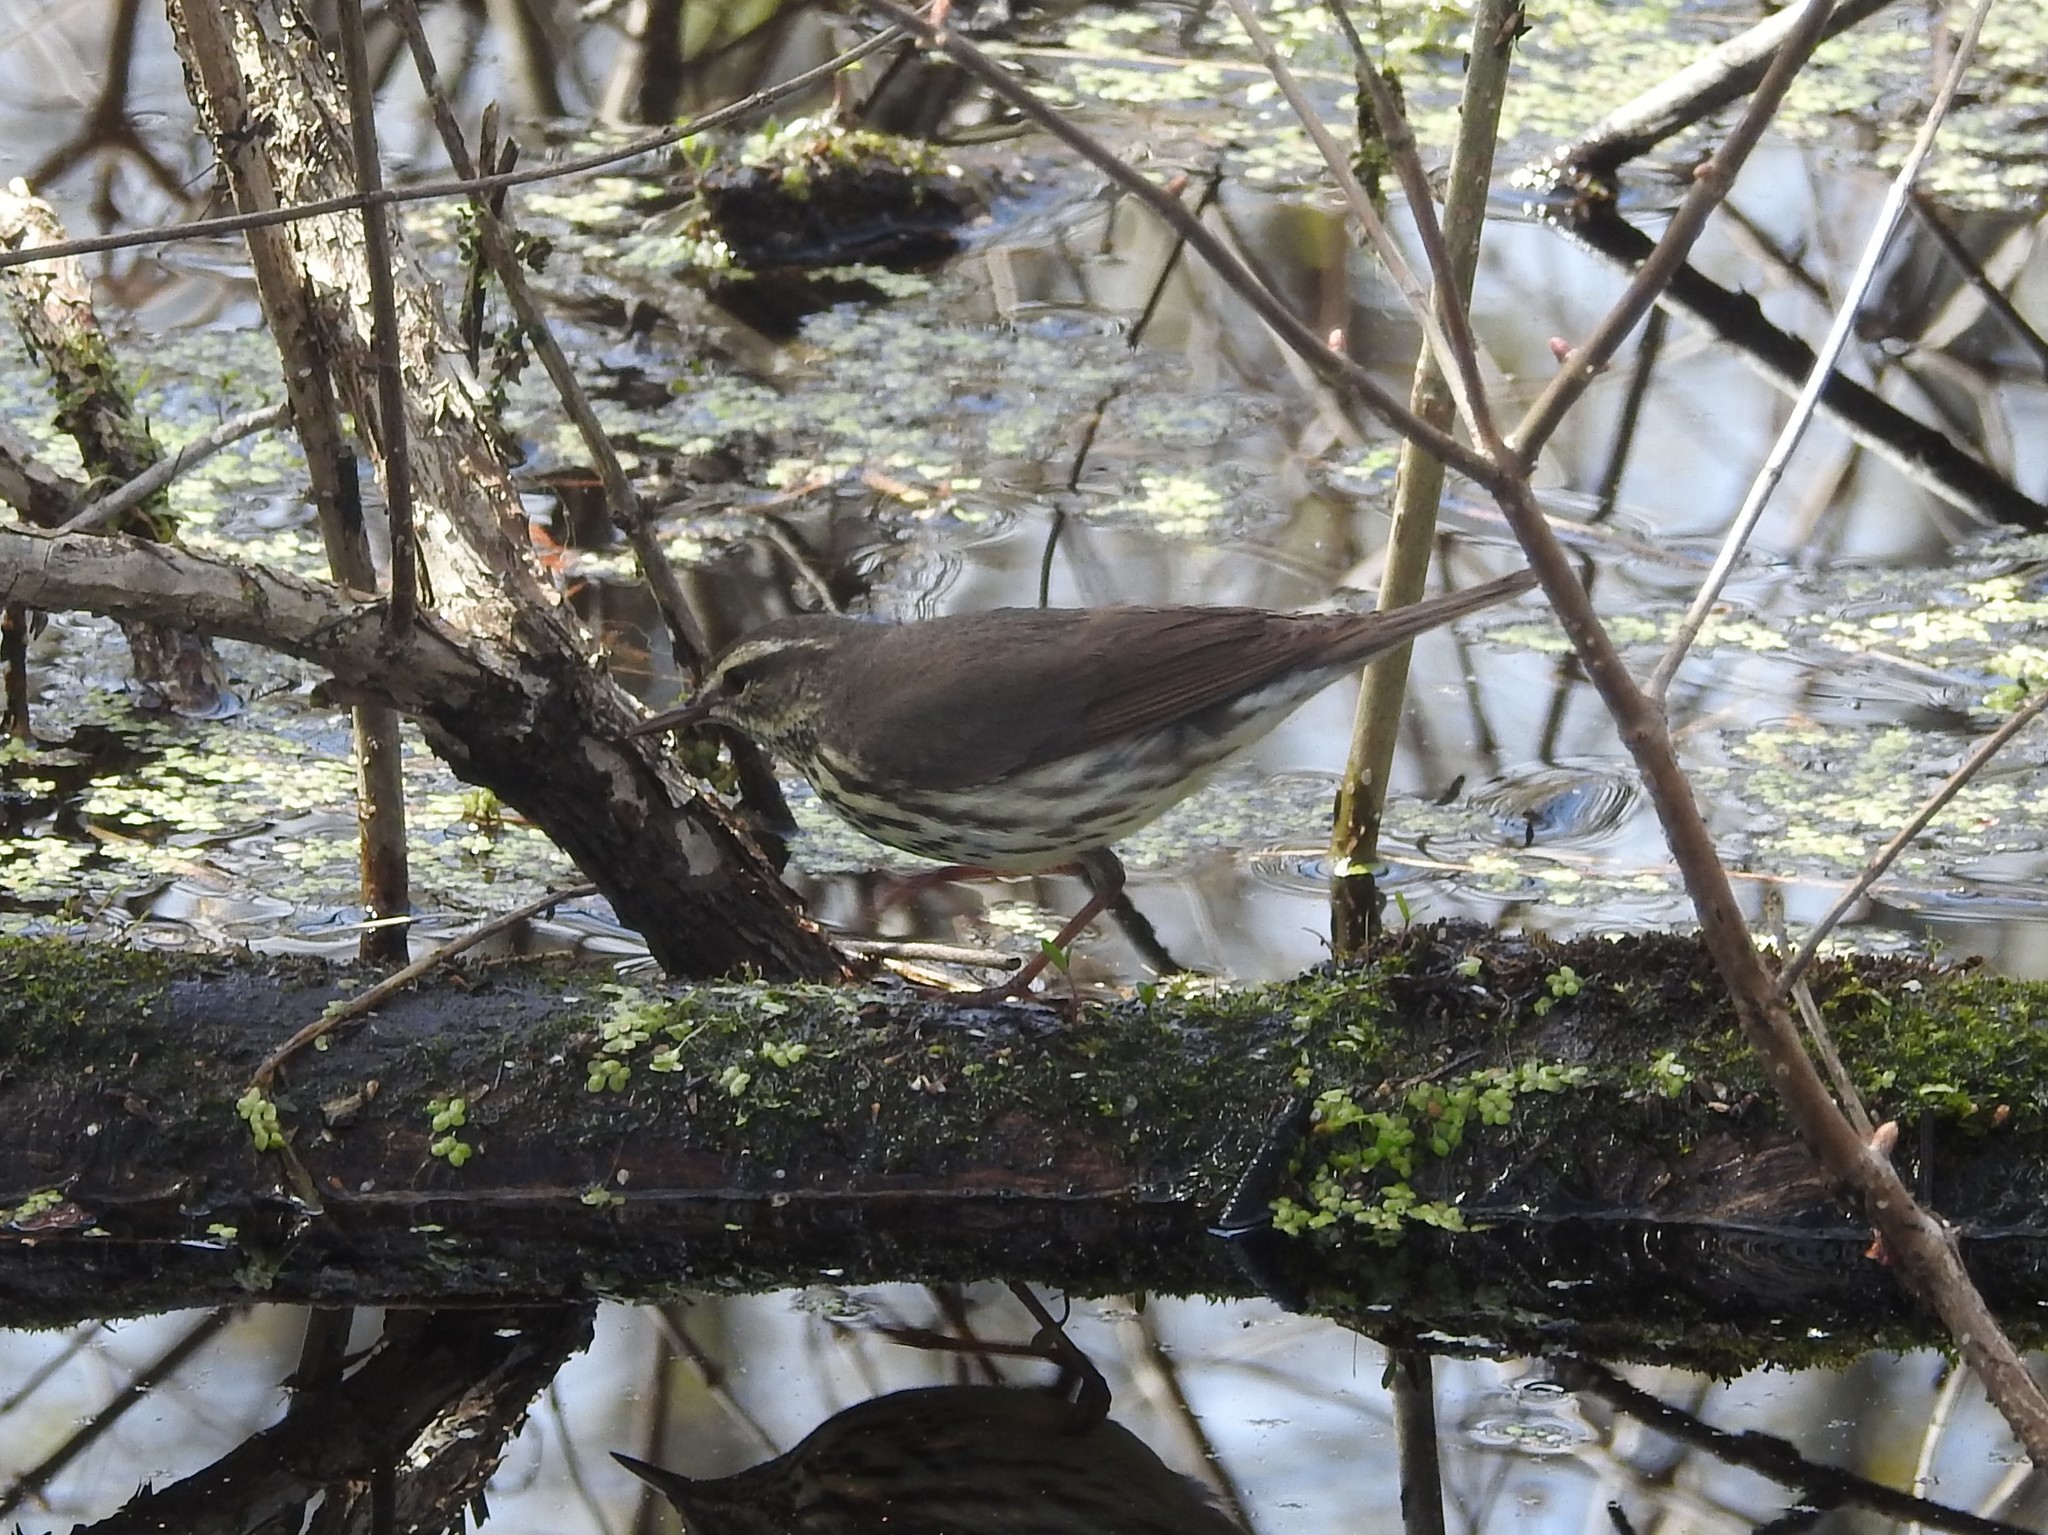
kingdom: Animalia
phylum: Chordata
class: Aves
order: Passeriformes
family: Parulidae
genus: Parkesia
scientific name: Parkesia noveboracensis
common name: Northern waterthrush
